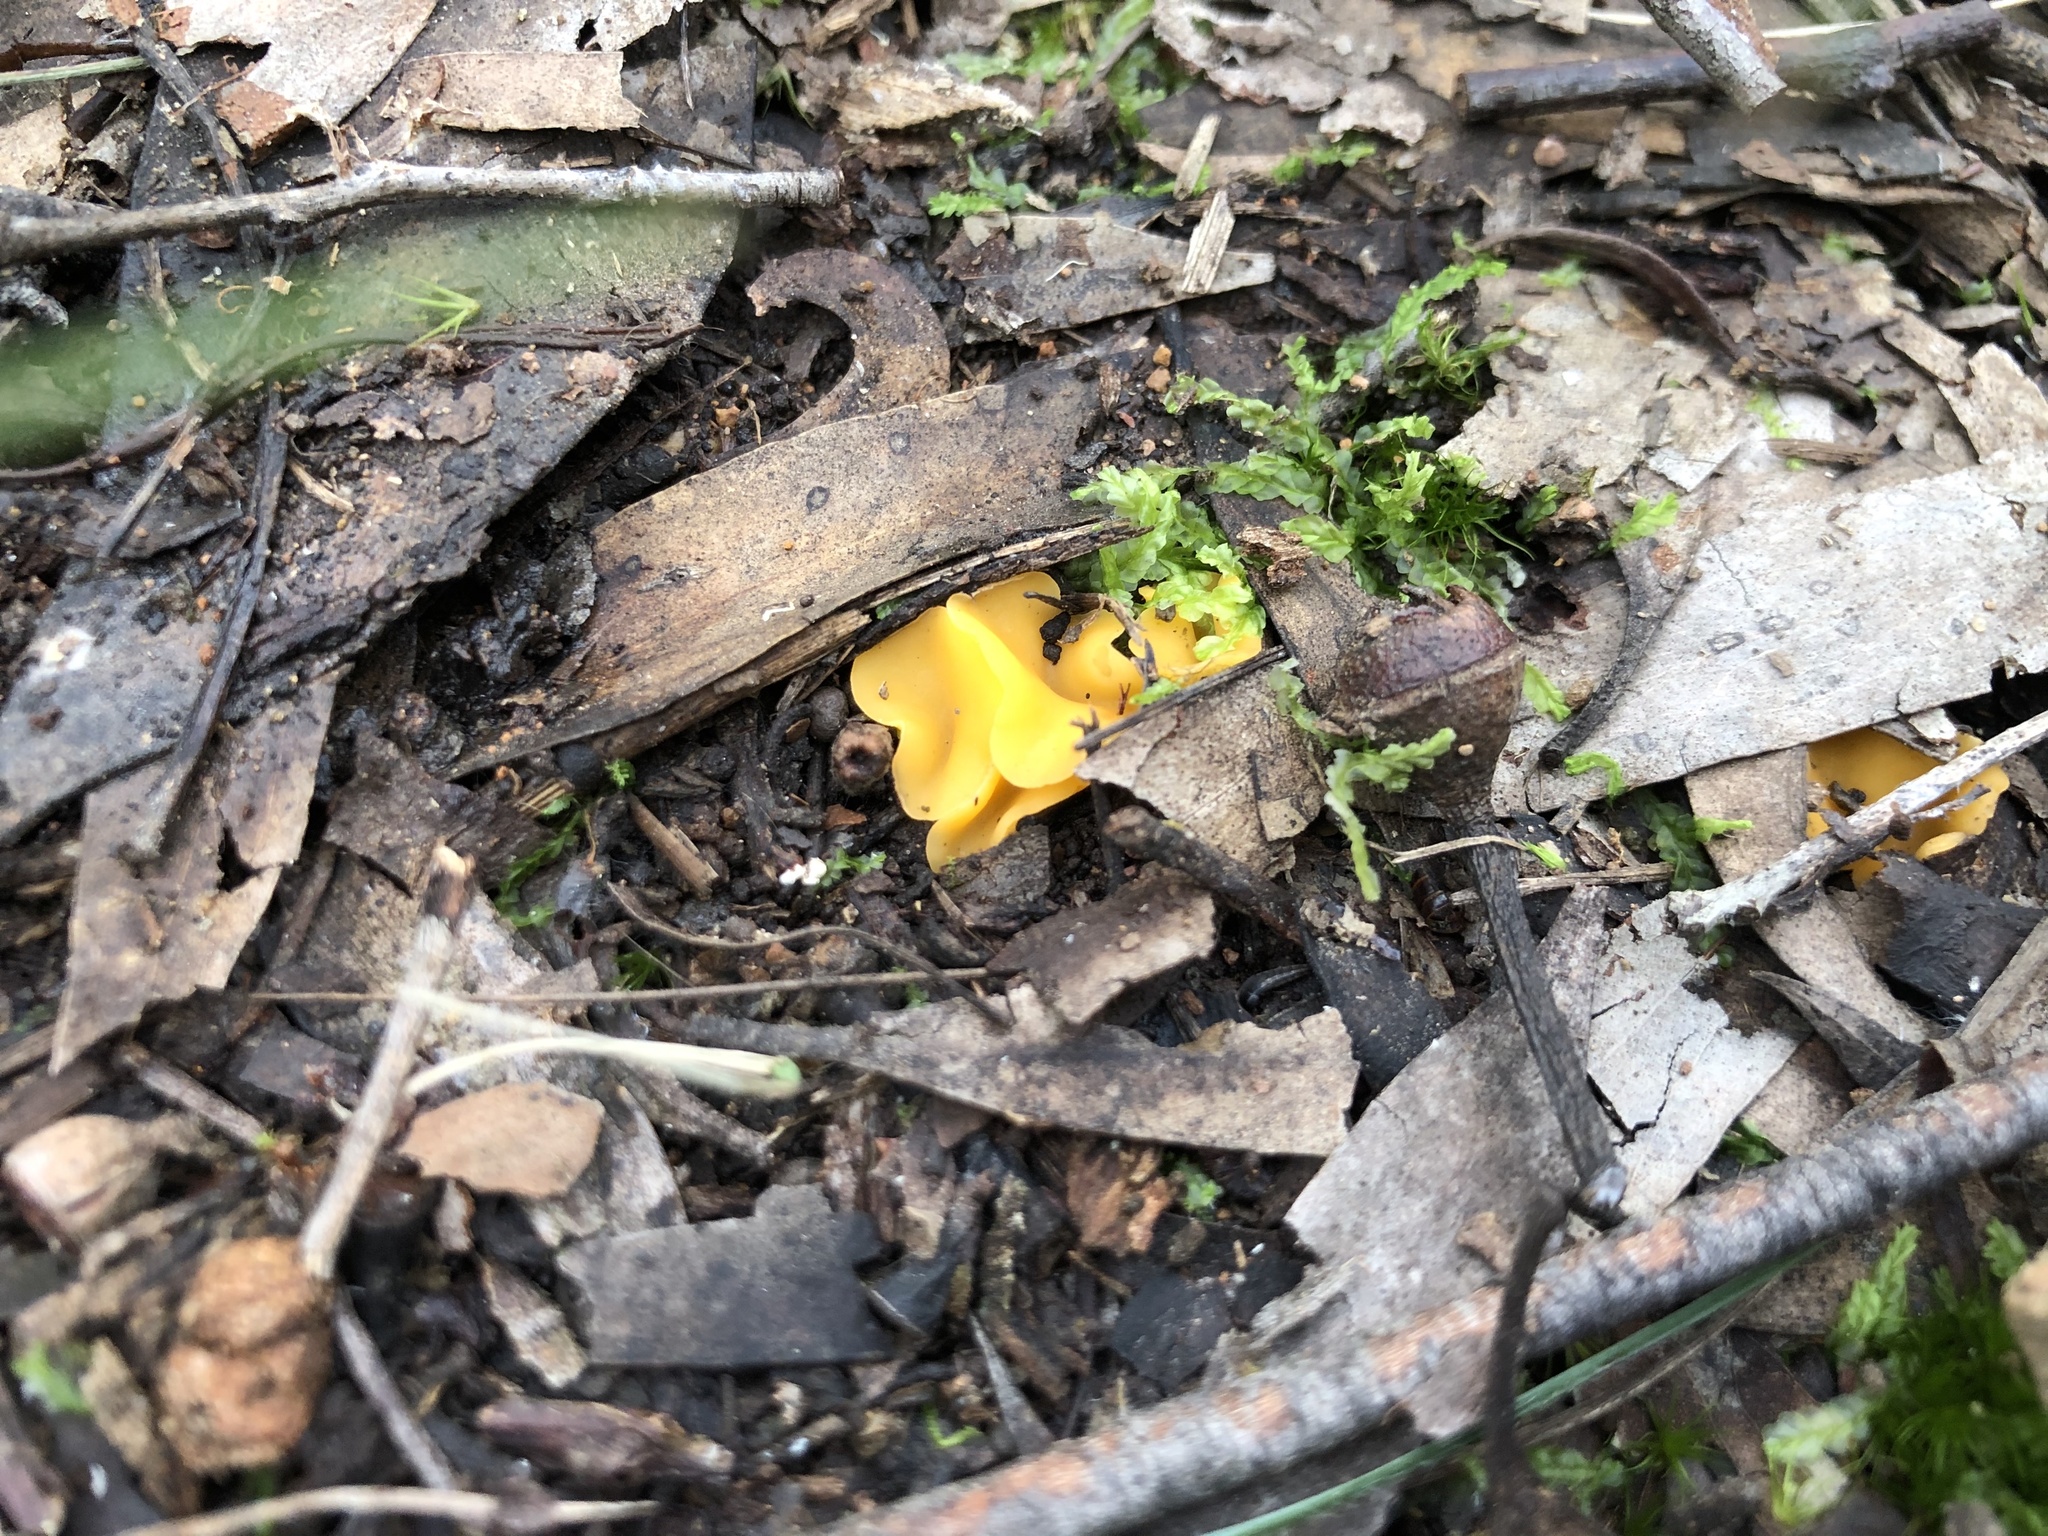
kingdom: Fungi
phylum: Ascomycota
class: Leotiomycetes
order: Helotiales
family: Helotiaceae
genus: Phaeohelotium
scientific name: Phaeohelotium baileyanum
